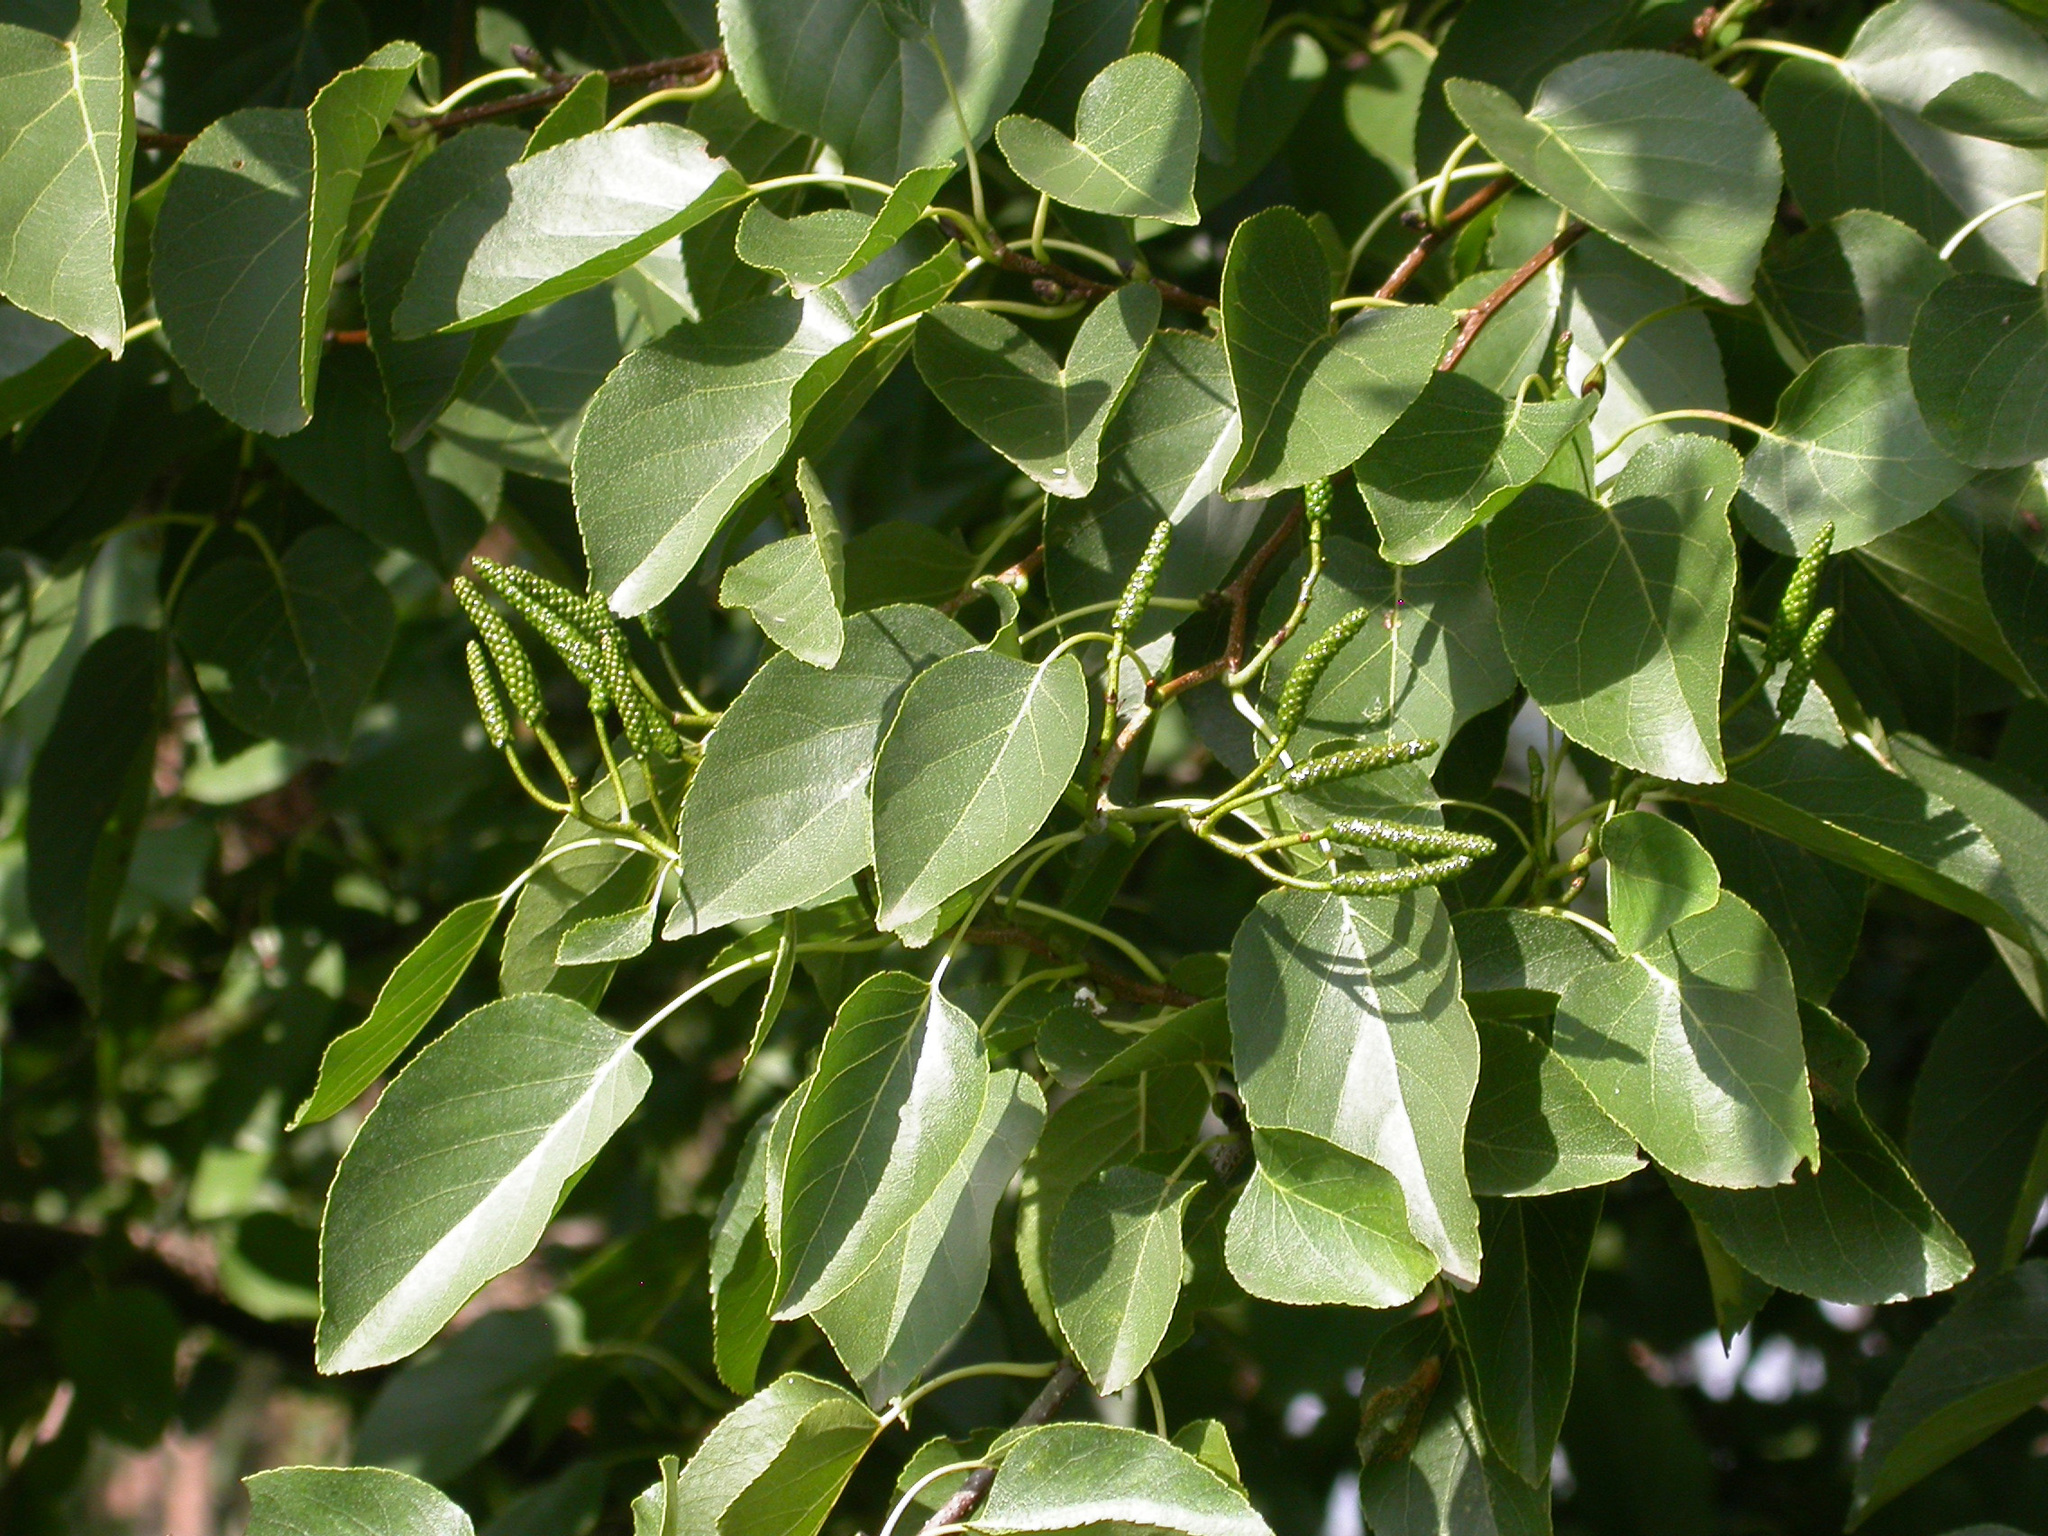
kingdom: Plantae
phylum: Tracheophyta
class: Magnoliopsida
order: Fagales
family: Betulaceae
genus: Alnus
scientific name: Alnus cordata
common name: Italian alder
